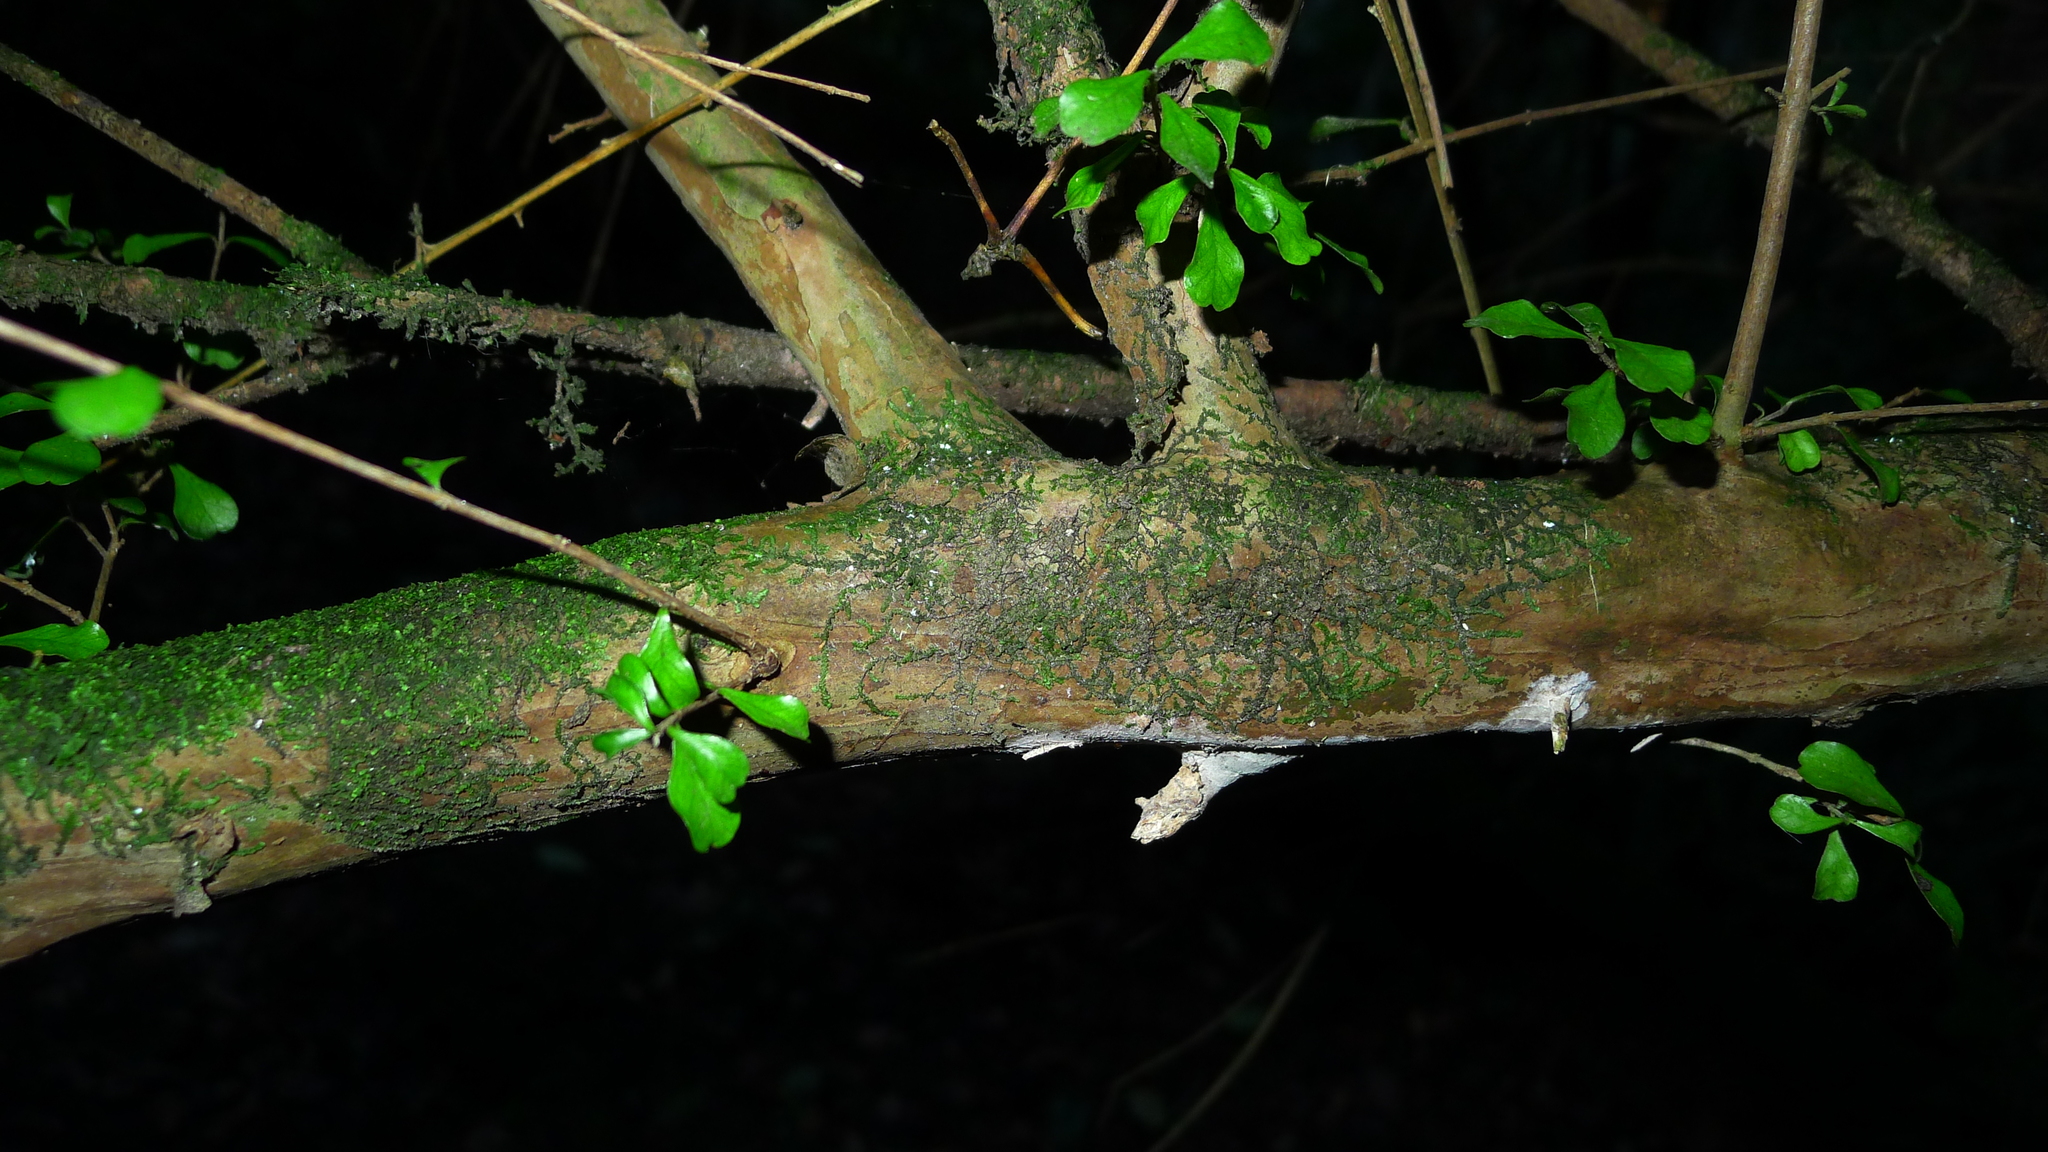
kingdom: Plantae
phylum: Tracheophyta
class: Magnoliopsida
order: Myrtales
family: Myrtaceae
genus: Lophomyrtus
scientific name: Lophomyrtus obcordata
